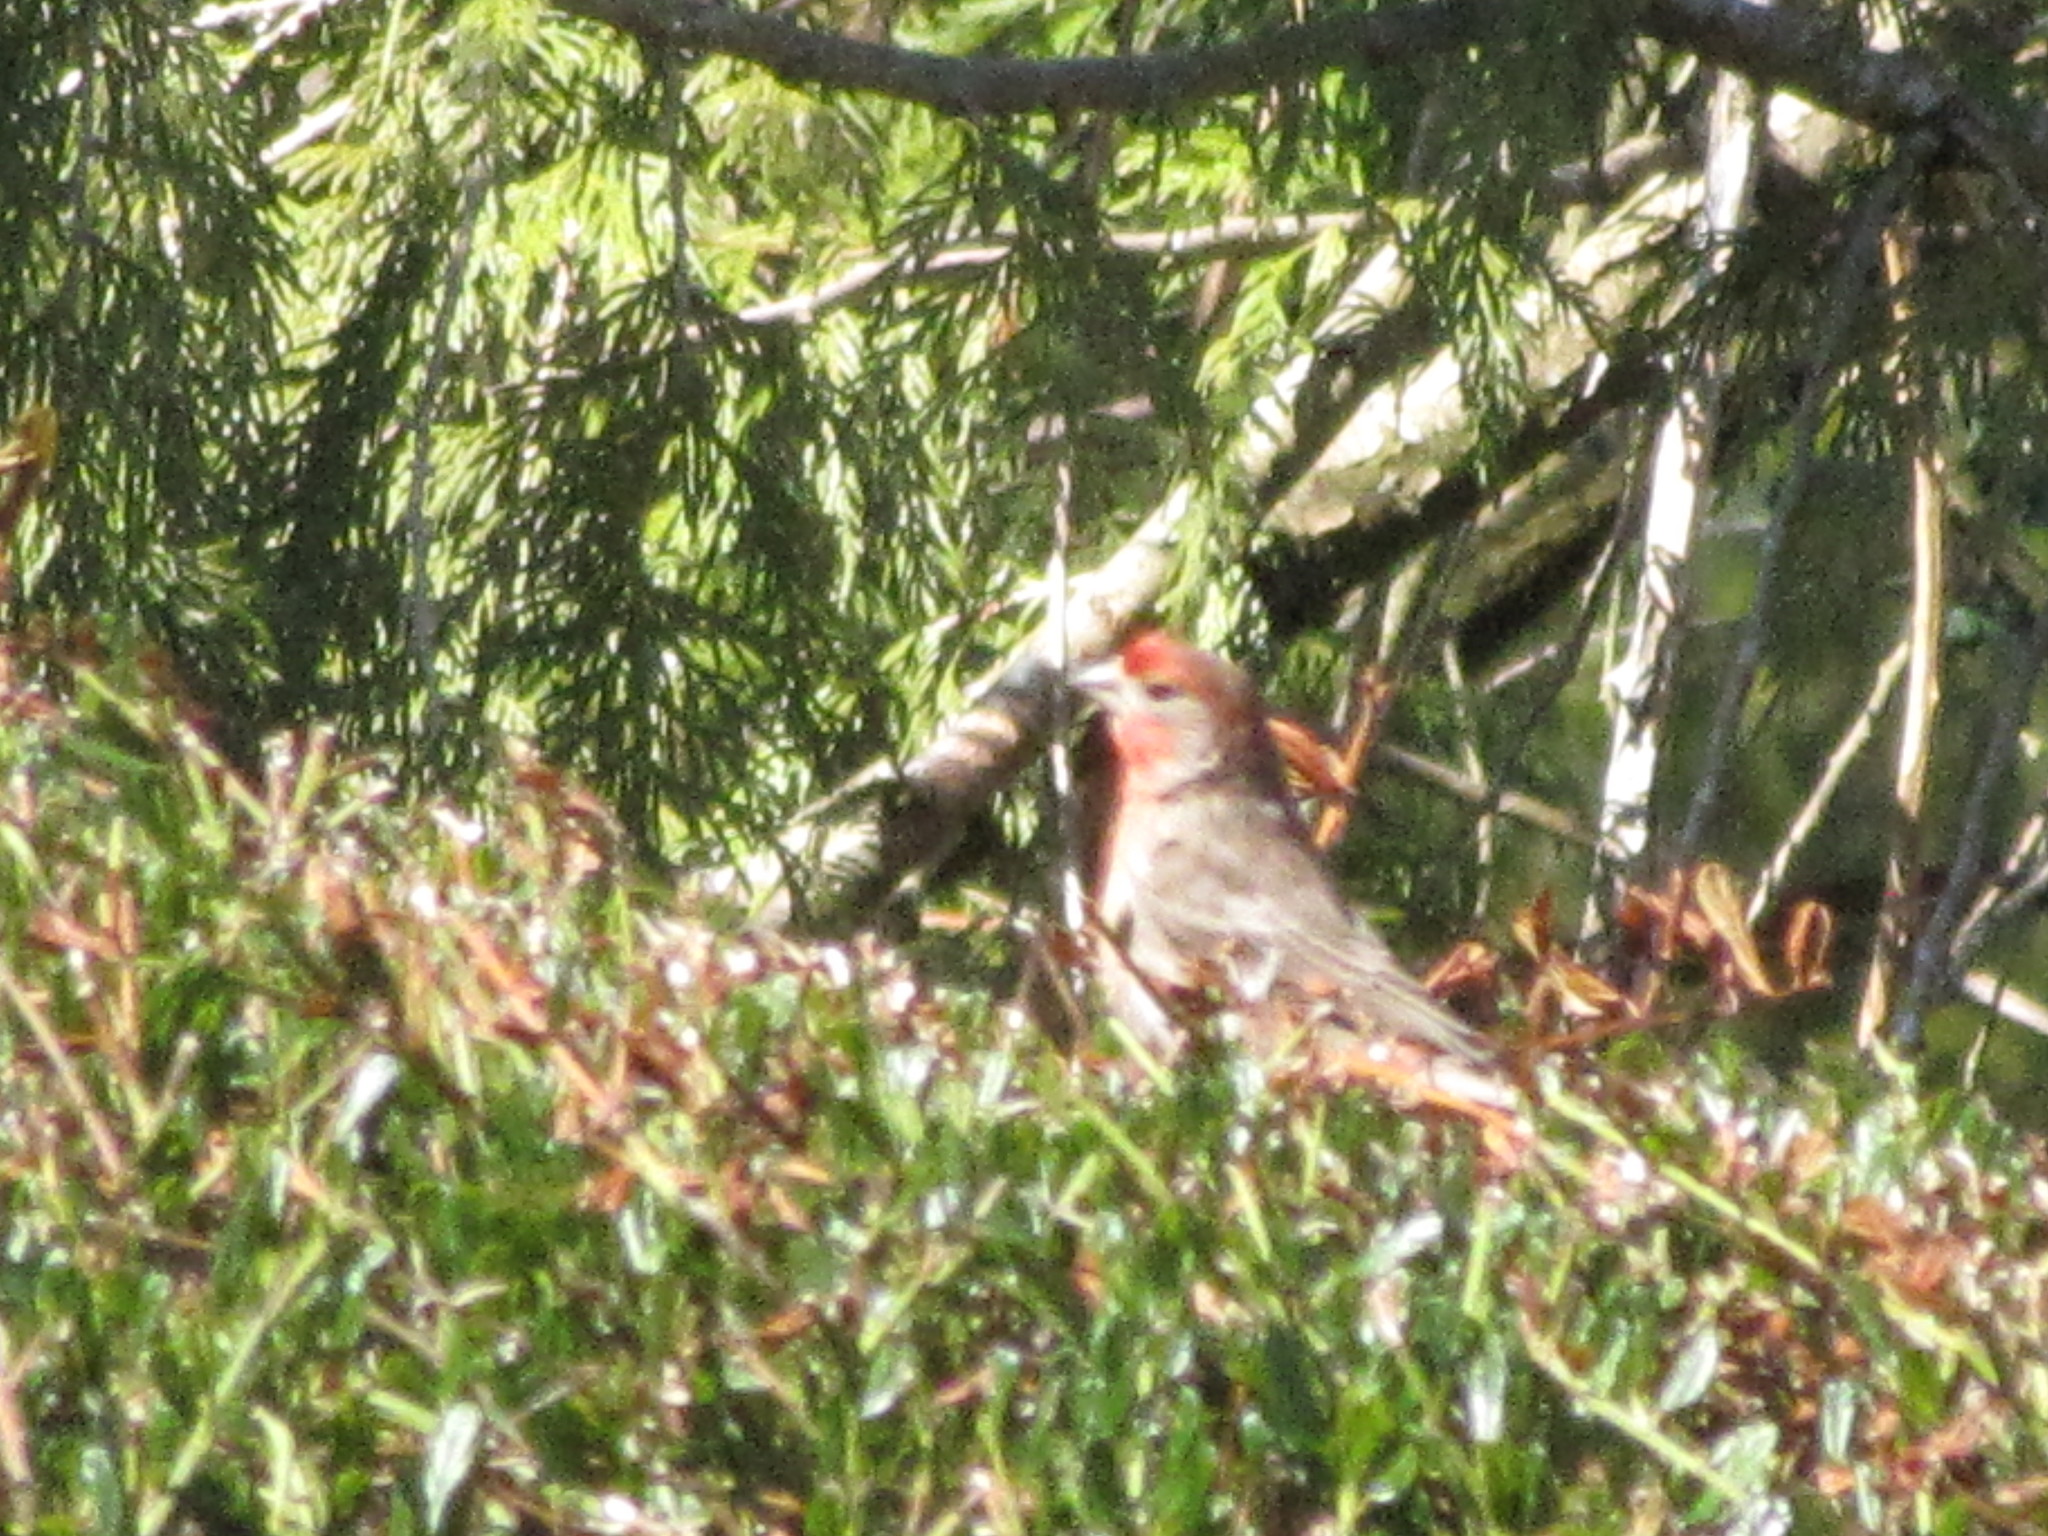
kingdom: Animalia
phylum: Chordata
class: Aves
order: Passeriformes
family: Fringillidae
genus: Haemorhous
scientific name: Haemorhous mexicanus
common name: House finch
